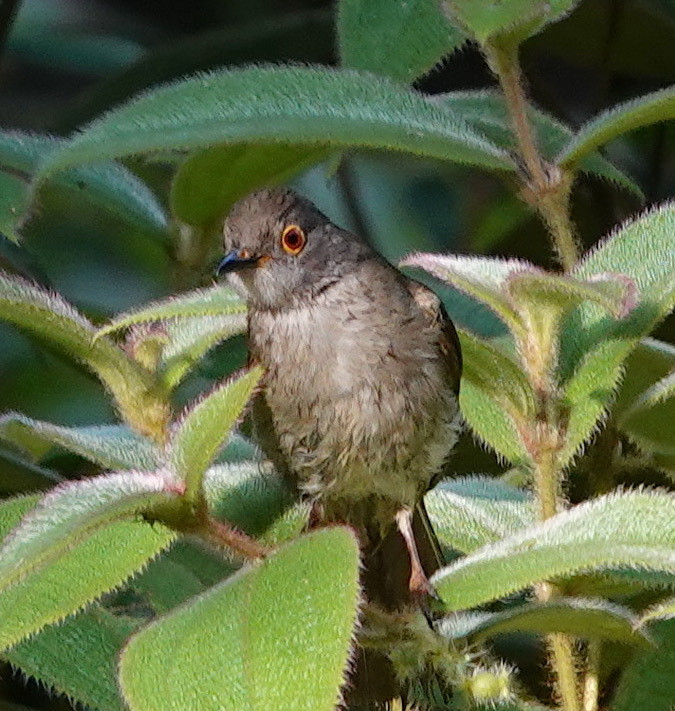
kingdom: Animalia
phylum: Chordata
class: Aves
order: Passeriformes
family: Pycnonotidae
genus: Rubigula
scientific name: Rubigula erythropthalmos
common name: Spectacled bulbul
